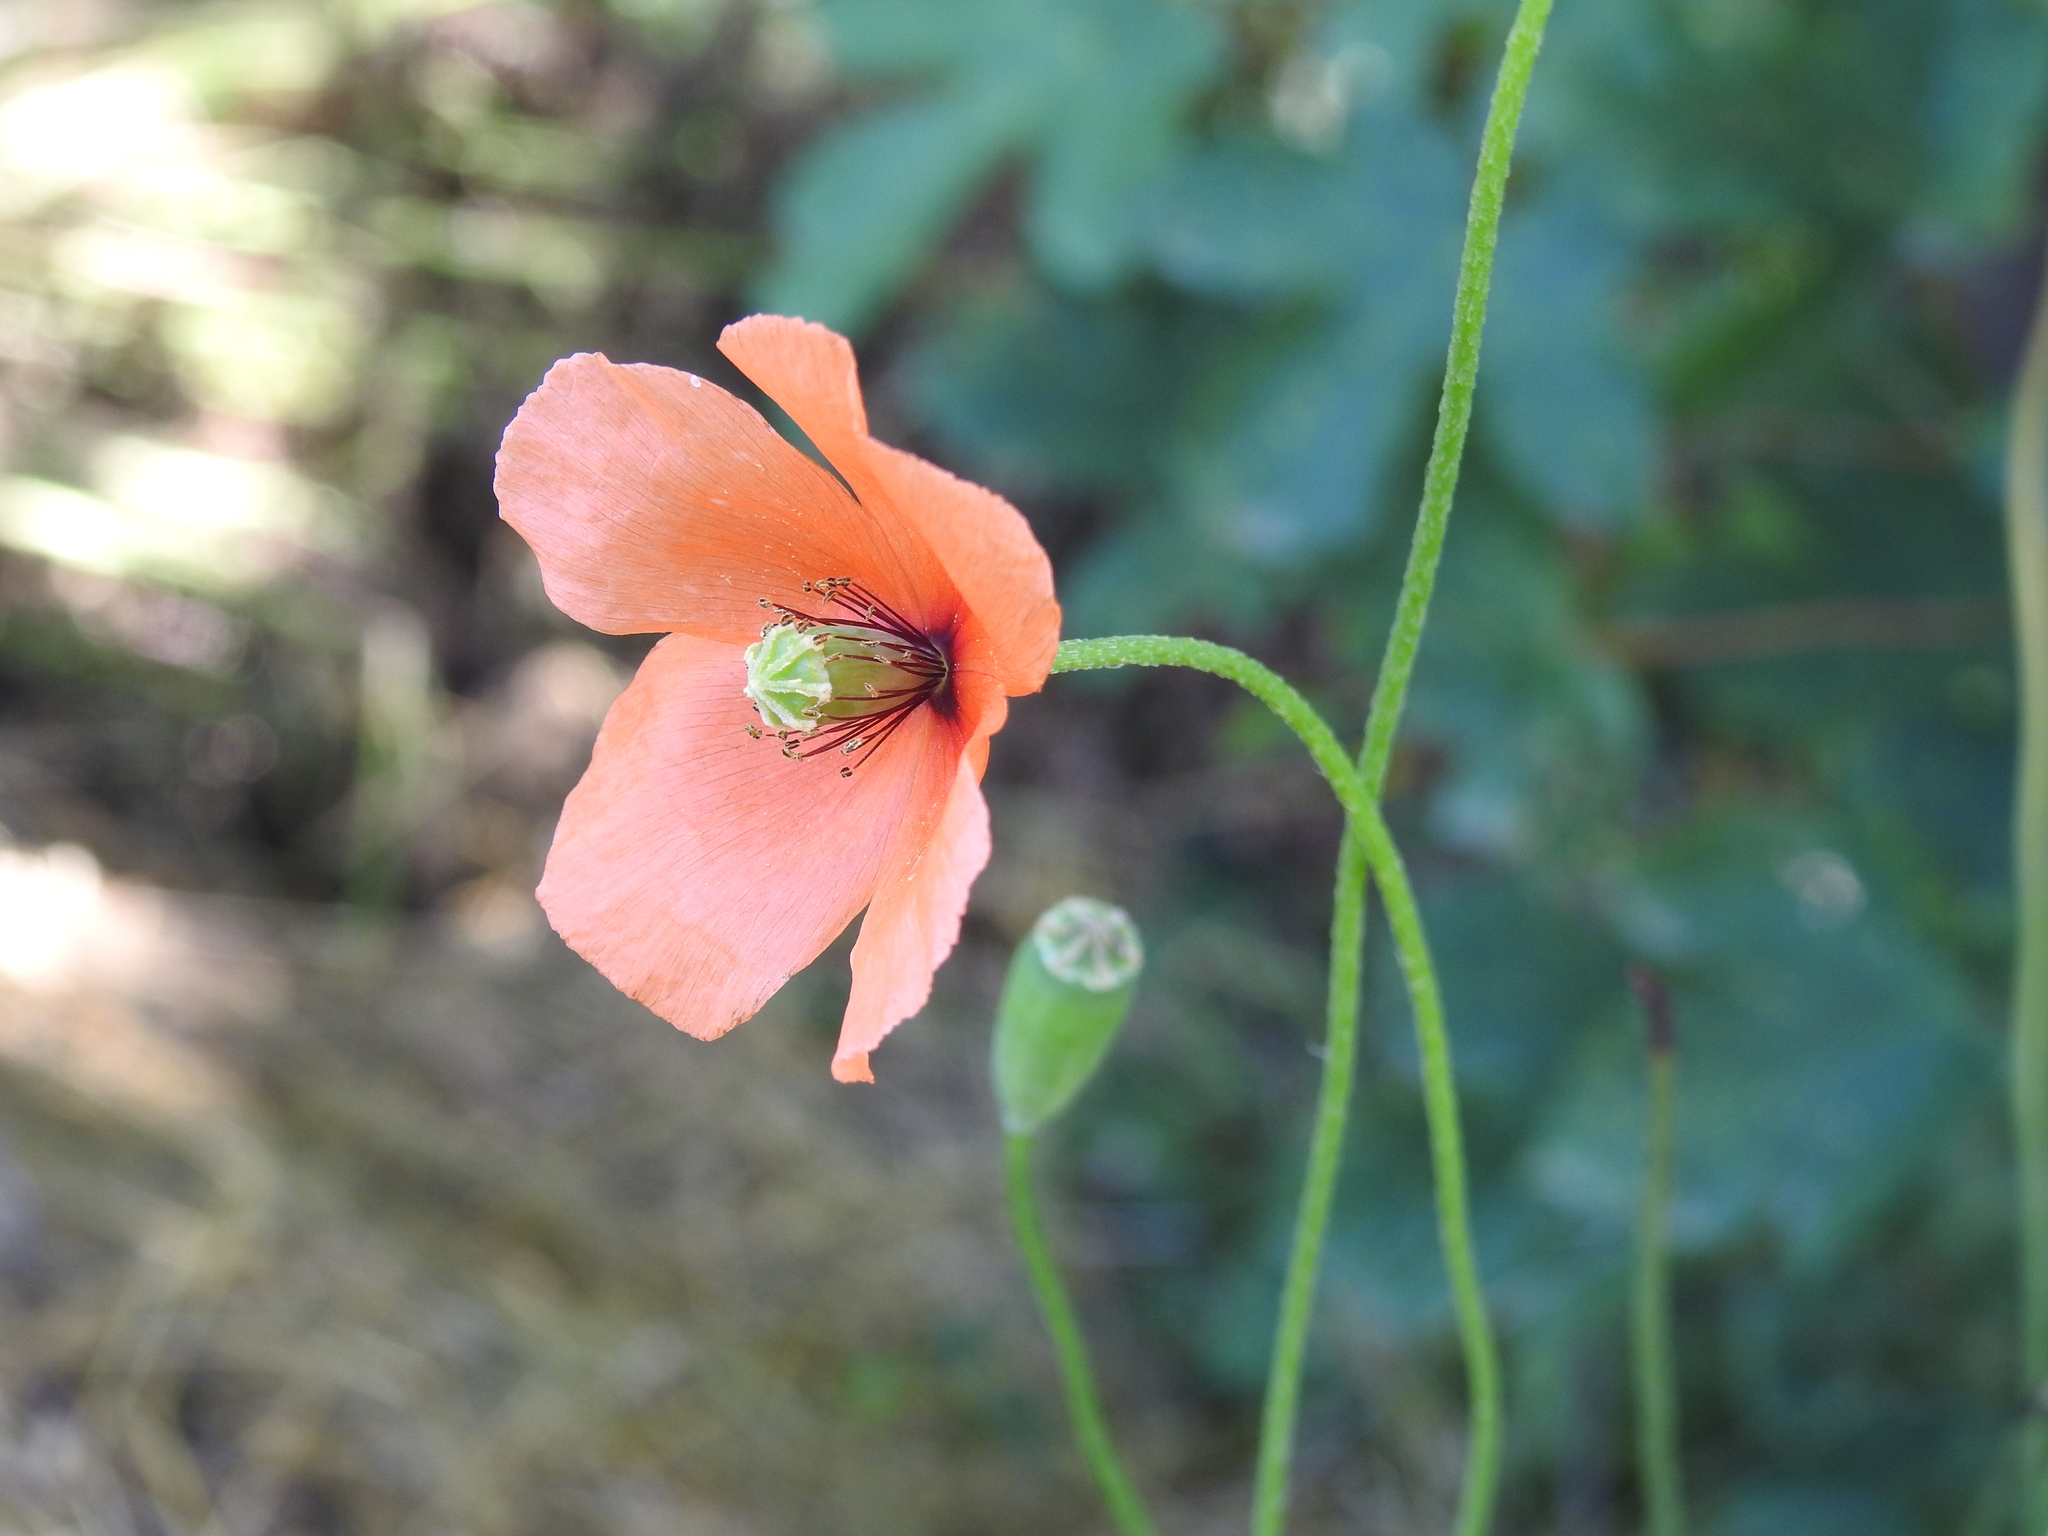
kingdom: Plantae
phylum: Tracheophyta
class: Magnoliopsida
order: Ranunculales
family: Papaveraceae
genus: Papaver
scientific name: Papaver dubium
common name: Long-headed poppy
